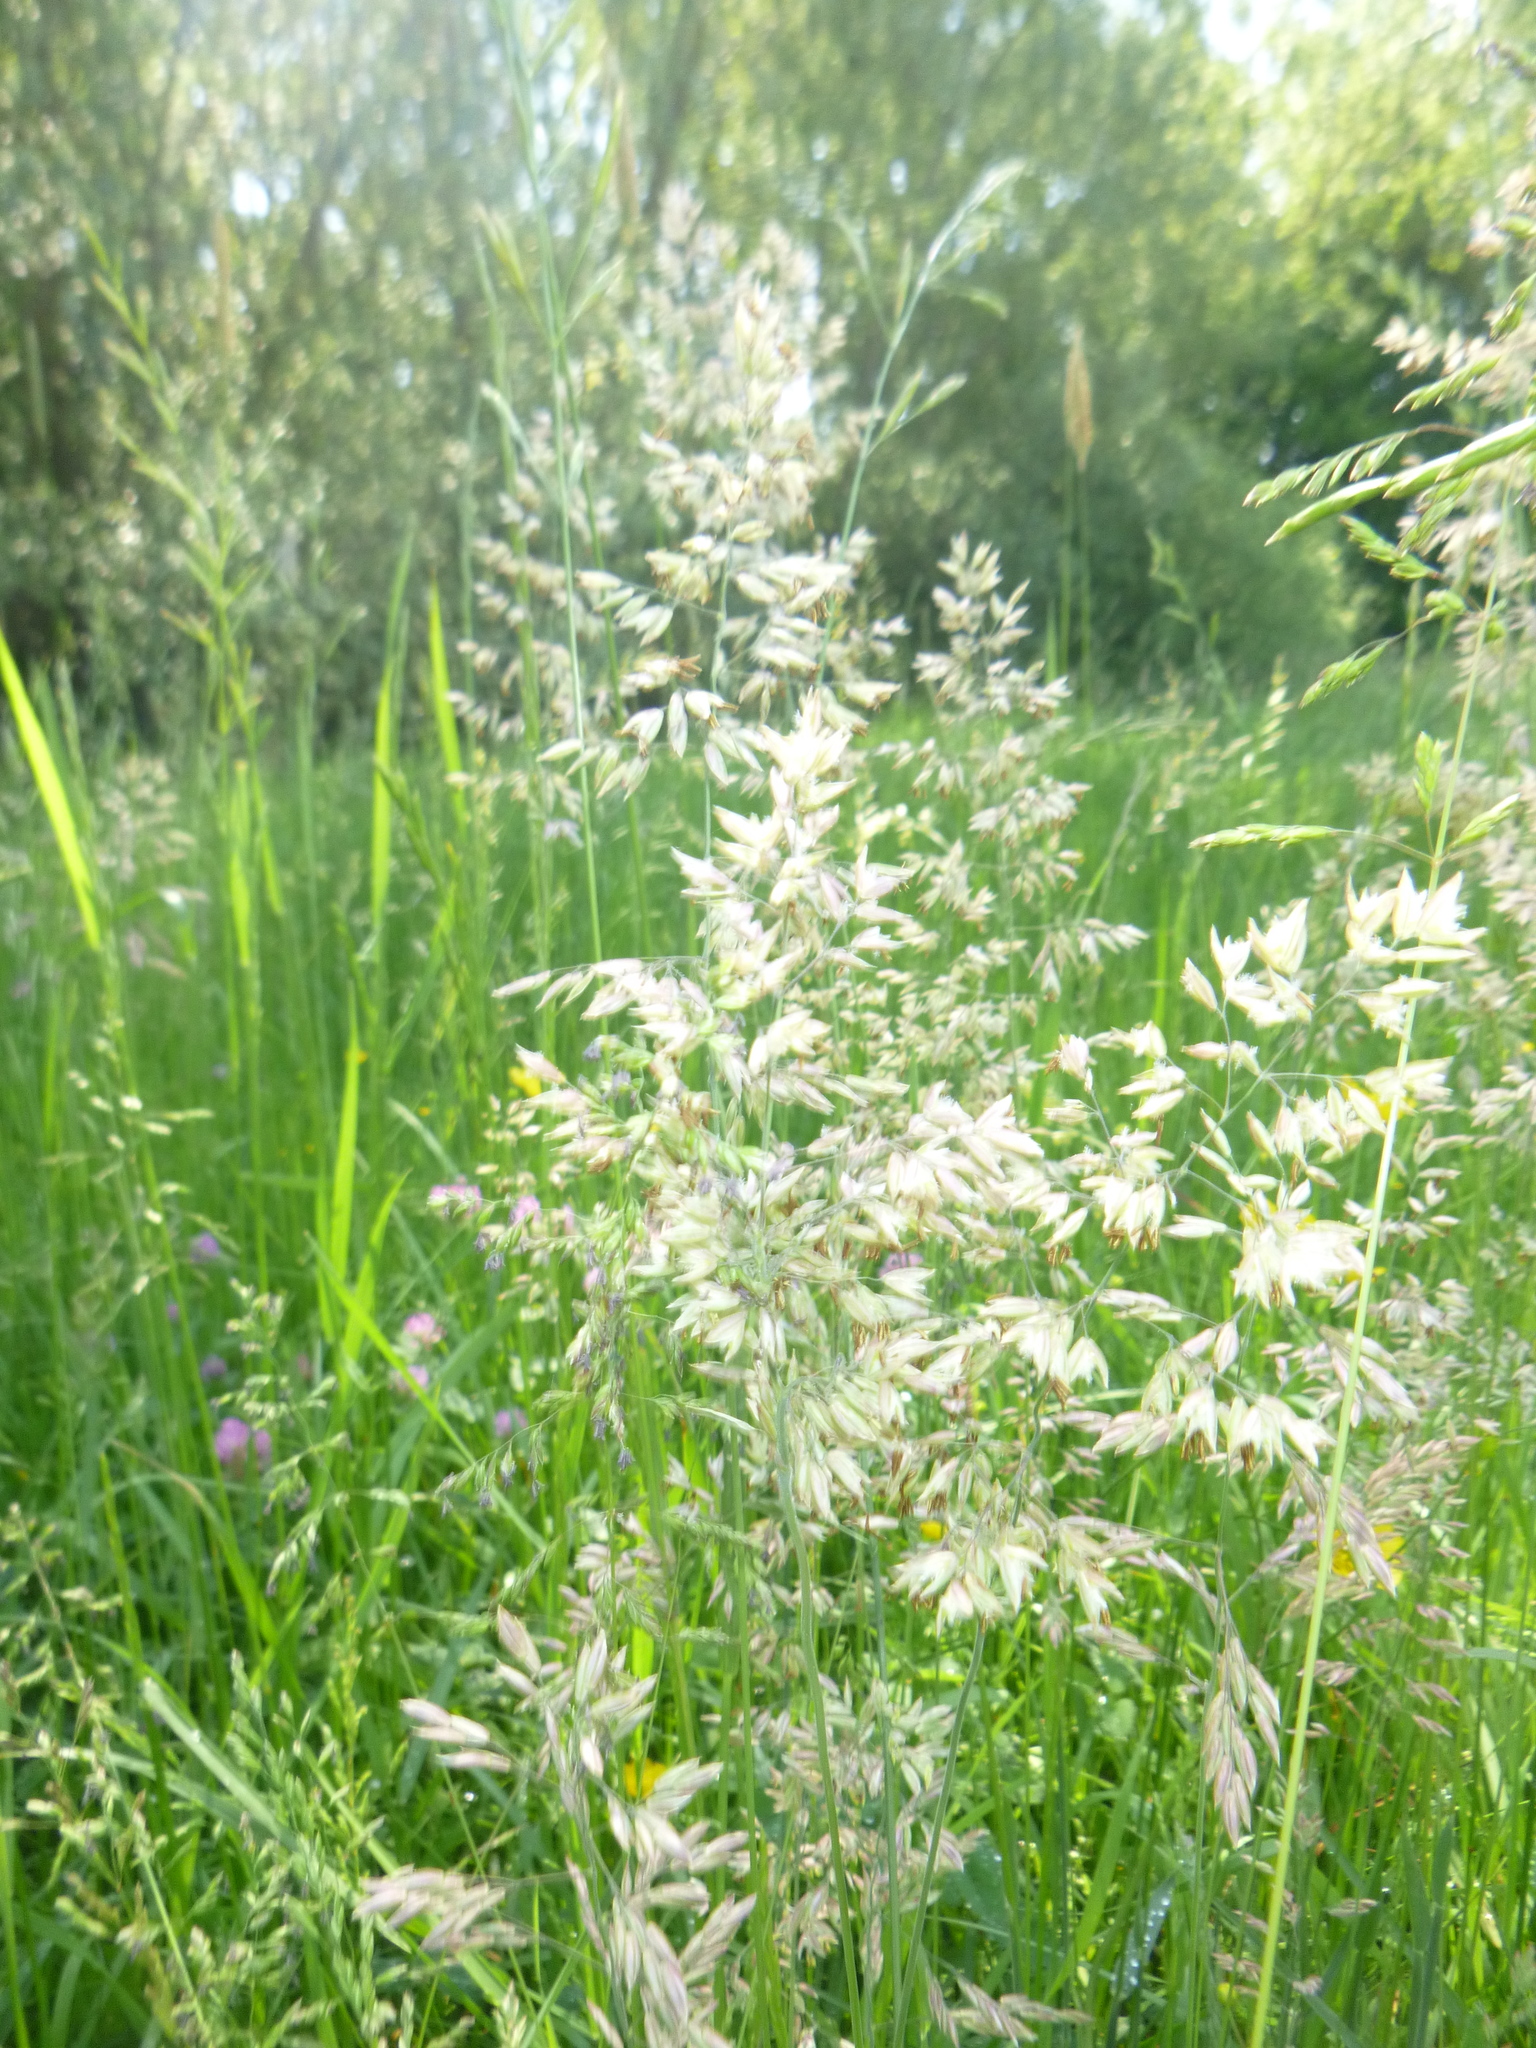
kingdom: Plantae
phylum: Tracheophyta
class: Liliopsida
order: Poales
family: Poaceae
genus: Holcus
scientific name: Holcus lanatus
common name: Yorkshire-fog
